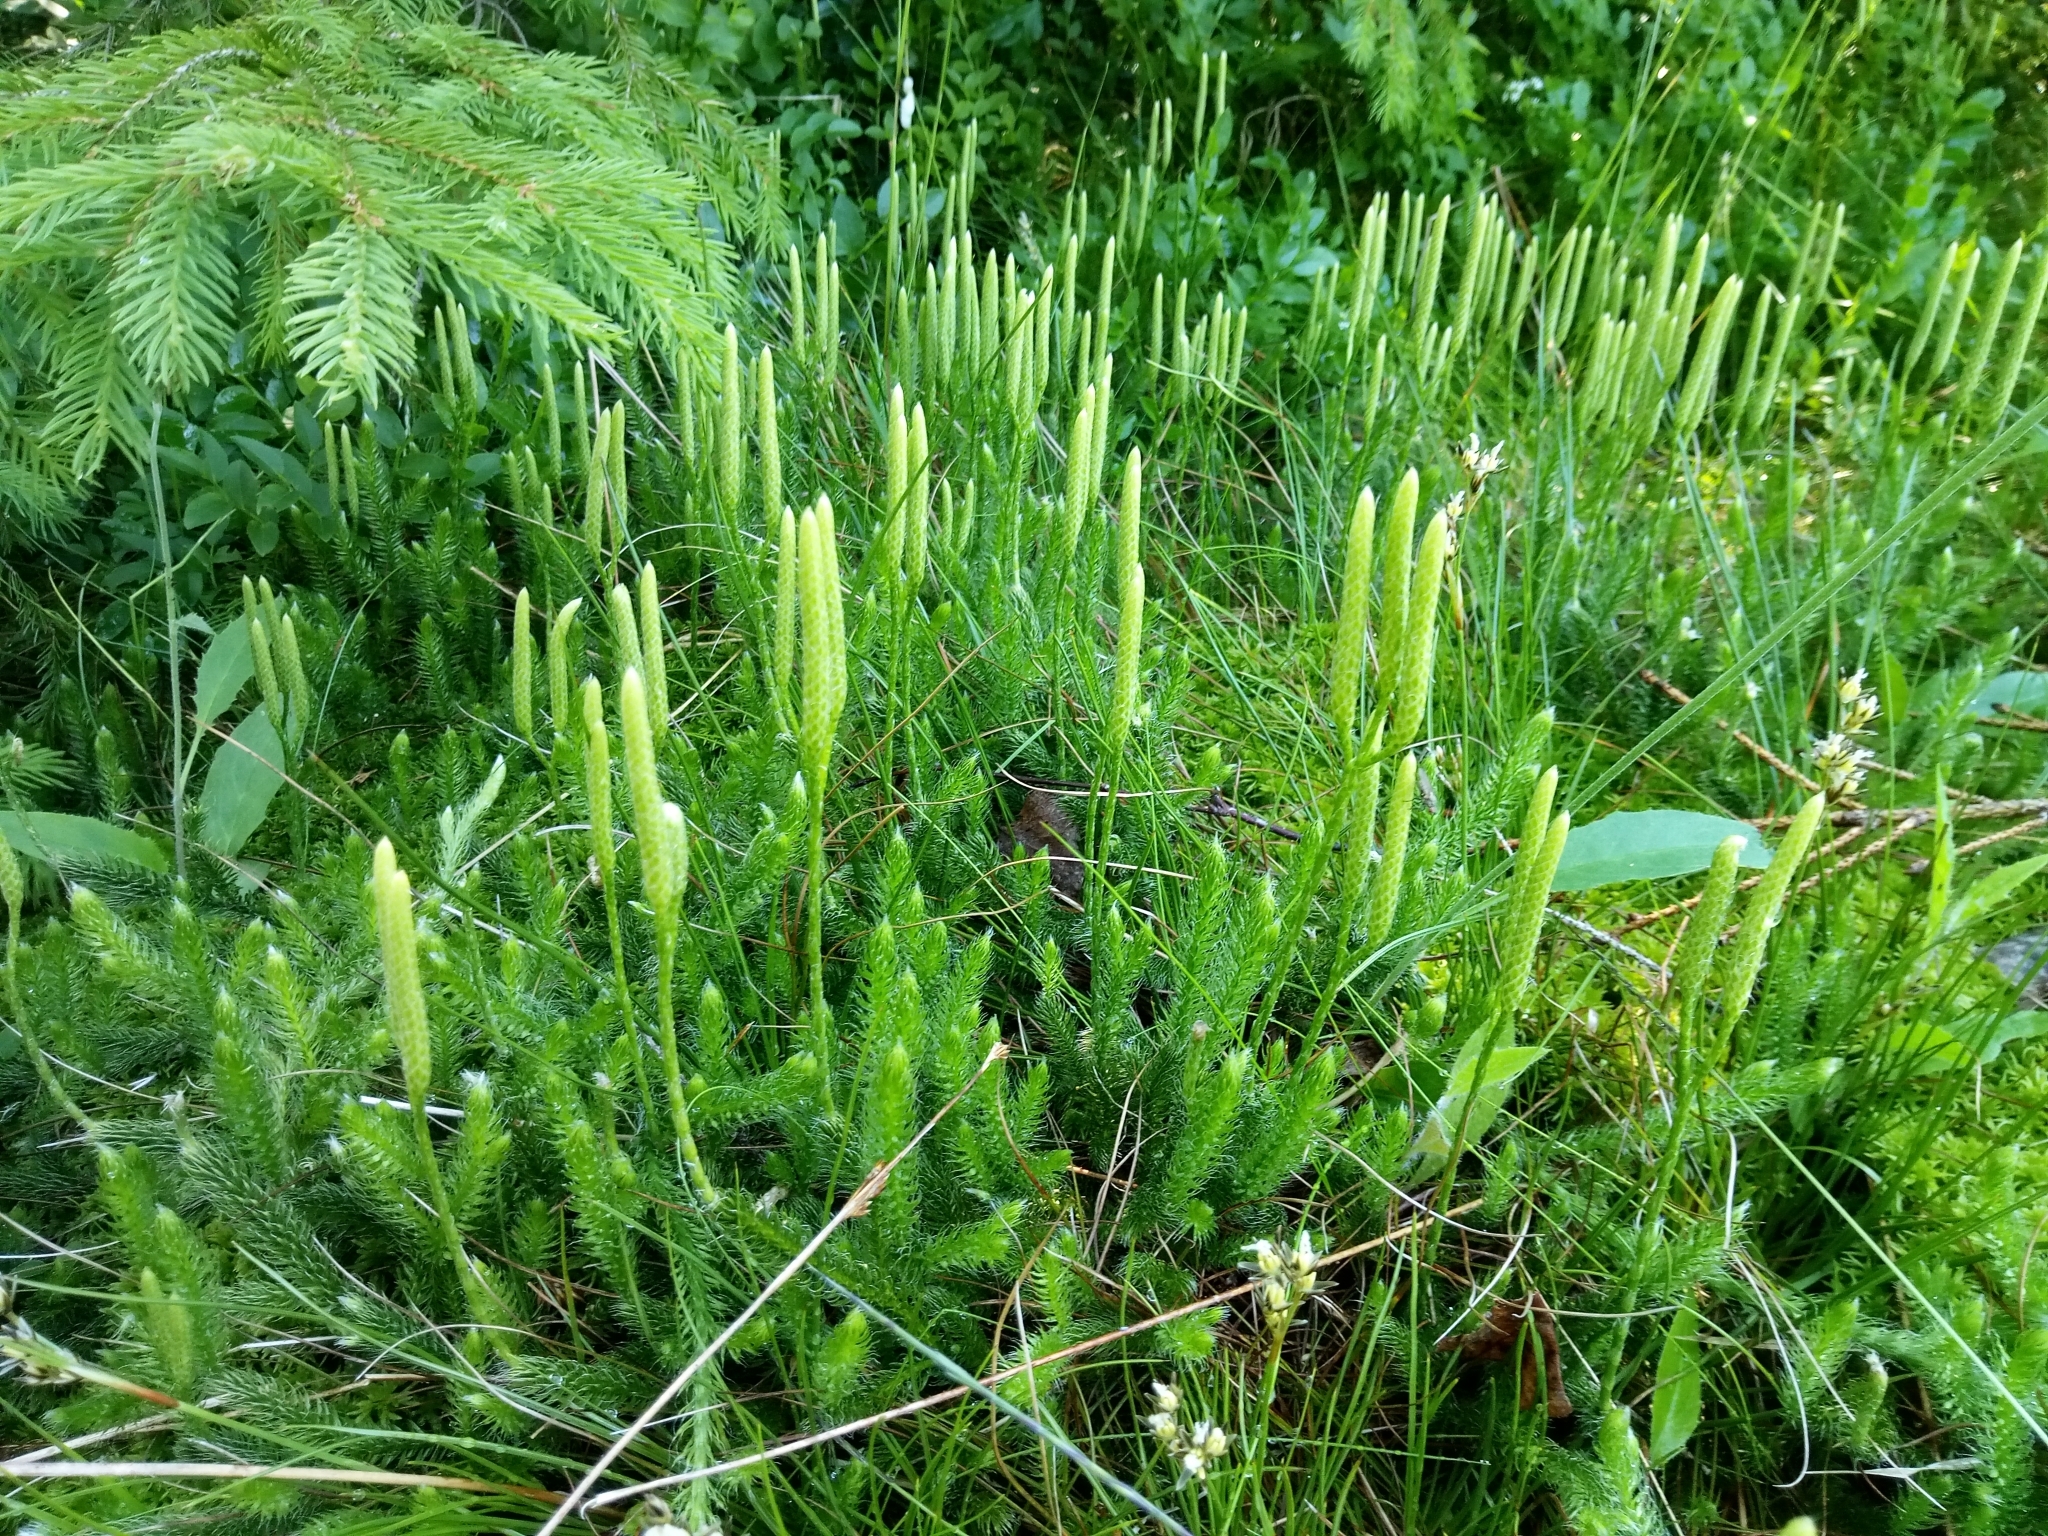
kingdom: Plantae
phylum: Tracheophyta
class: Lycopodiopsida
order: Lycopodiales
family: Lycopodiaceae
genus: Lycopodium
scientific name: Lycopodium clavatum
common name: Stag's-horn clubmoss
